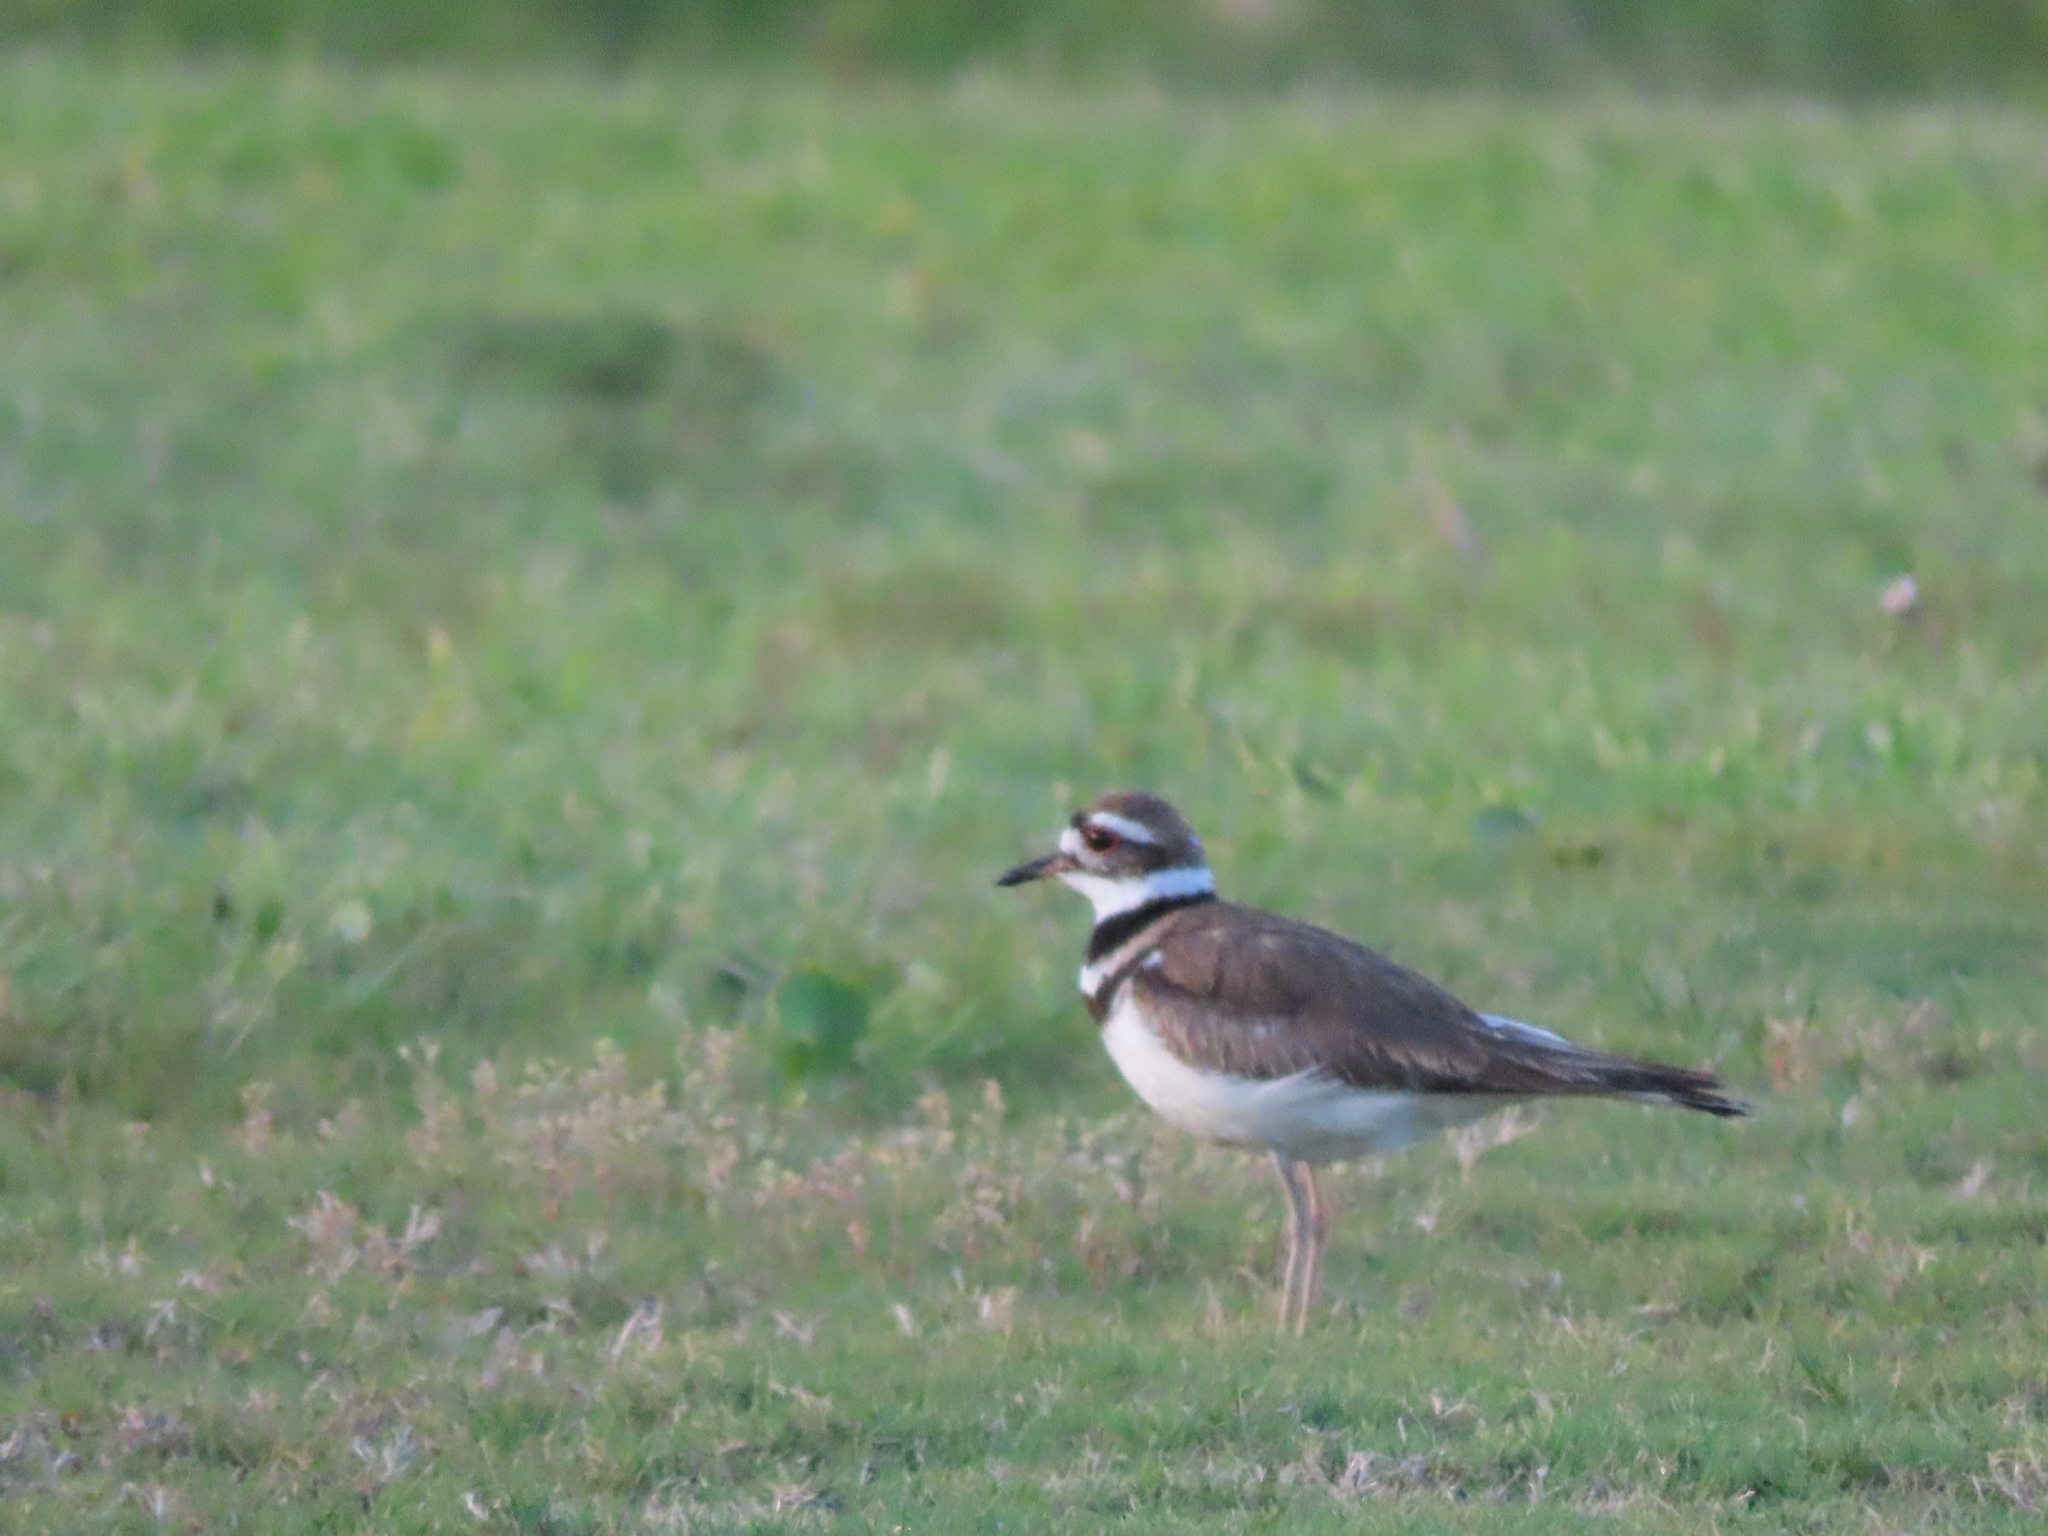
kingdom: Animalia
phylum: Chordata
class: Aves
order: Charadriiformes
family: Charadriidae
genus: Charadrius
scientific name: Charadrius vociferus
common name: Killdeer
